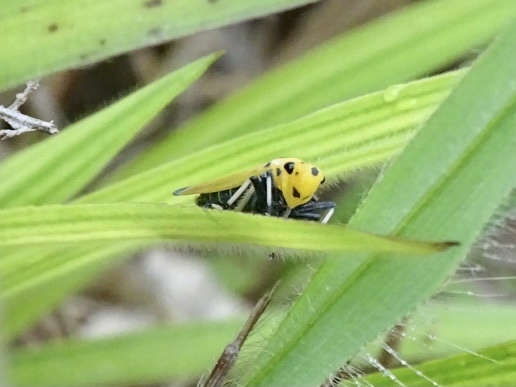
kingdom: Animalia
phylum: Arthropoda
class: Insecta
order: Hemiptera
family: Cicadellidae
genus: Bothrogonia
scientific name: Bothrogonia ferruginea
